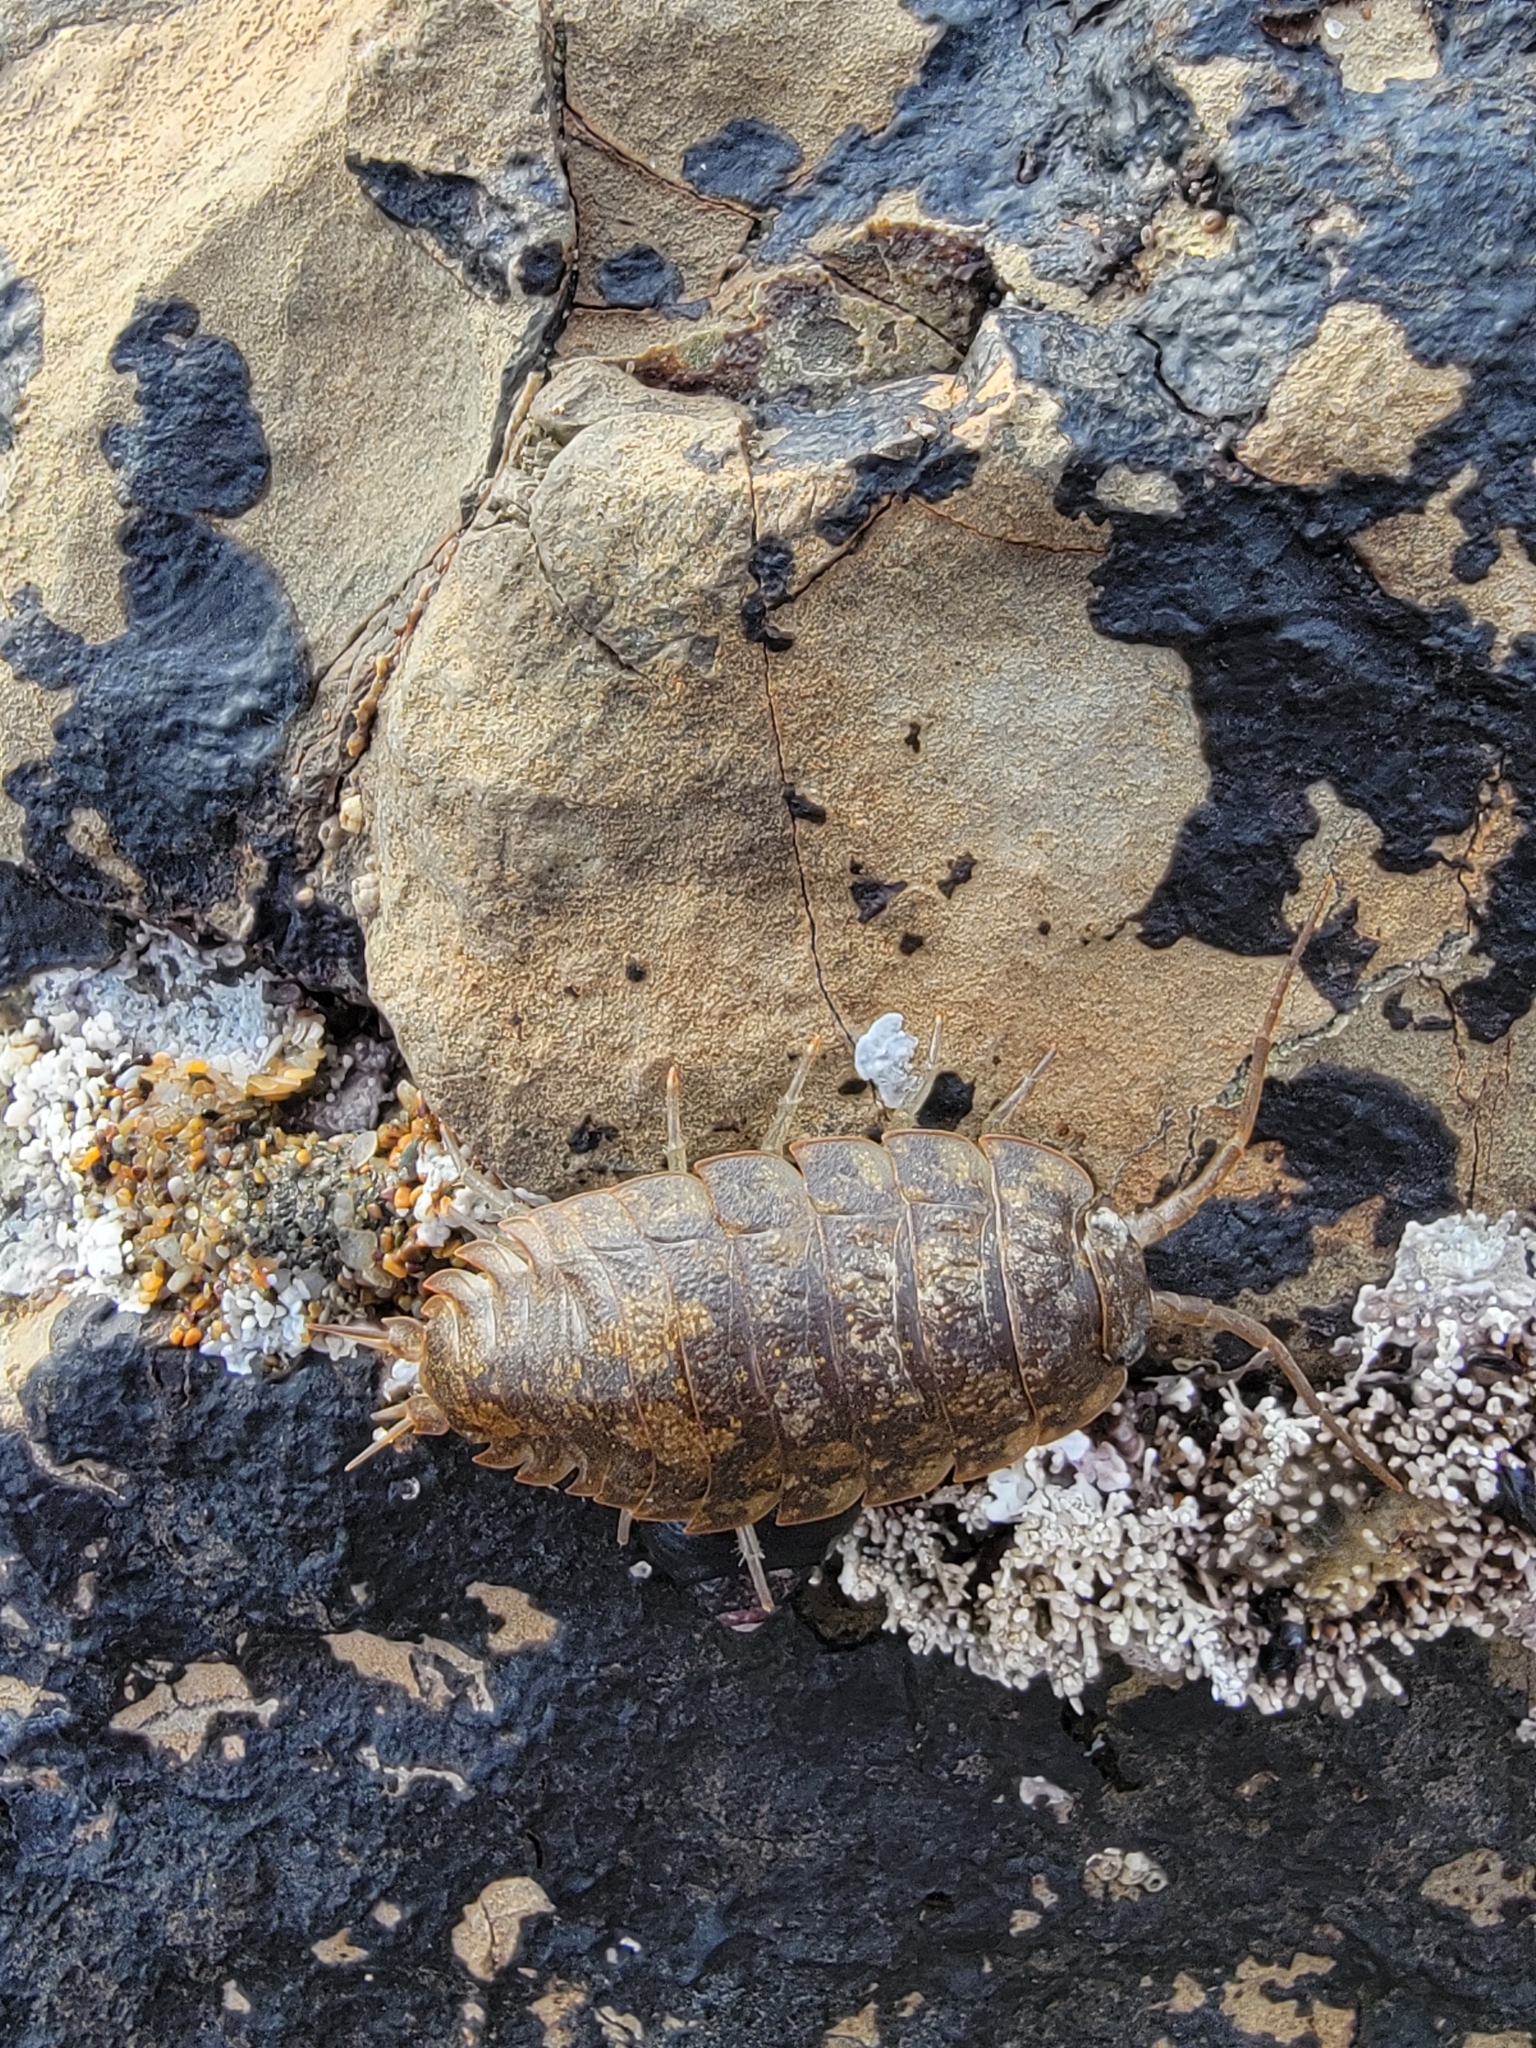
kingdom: Animalia
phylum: Arthropoda
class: Malacostraca
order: Isopoda
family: Ligiidae
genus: Ligia
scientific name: Ligia pallasii
